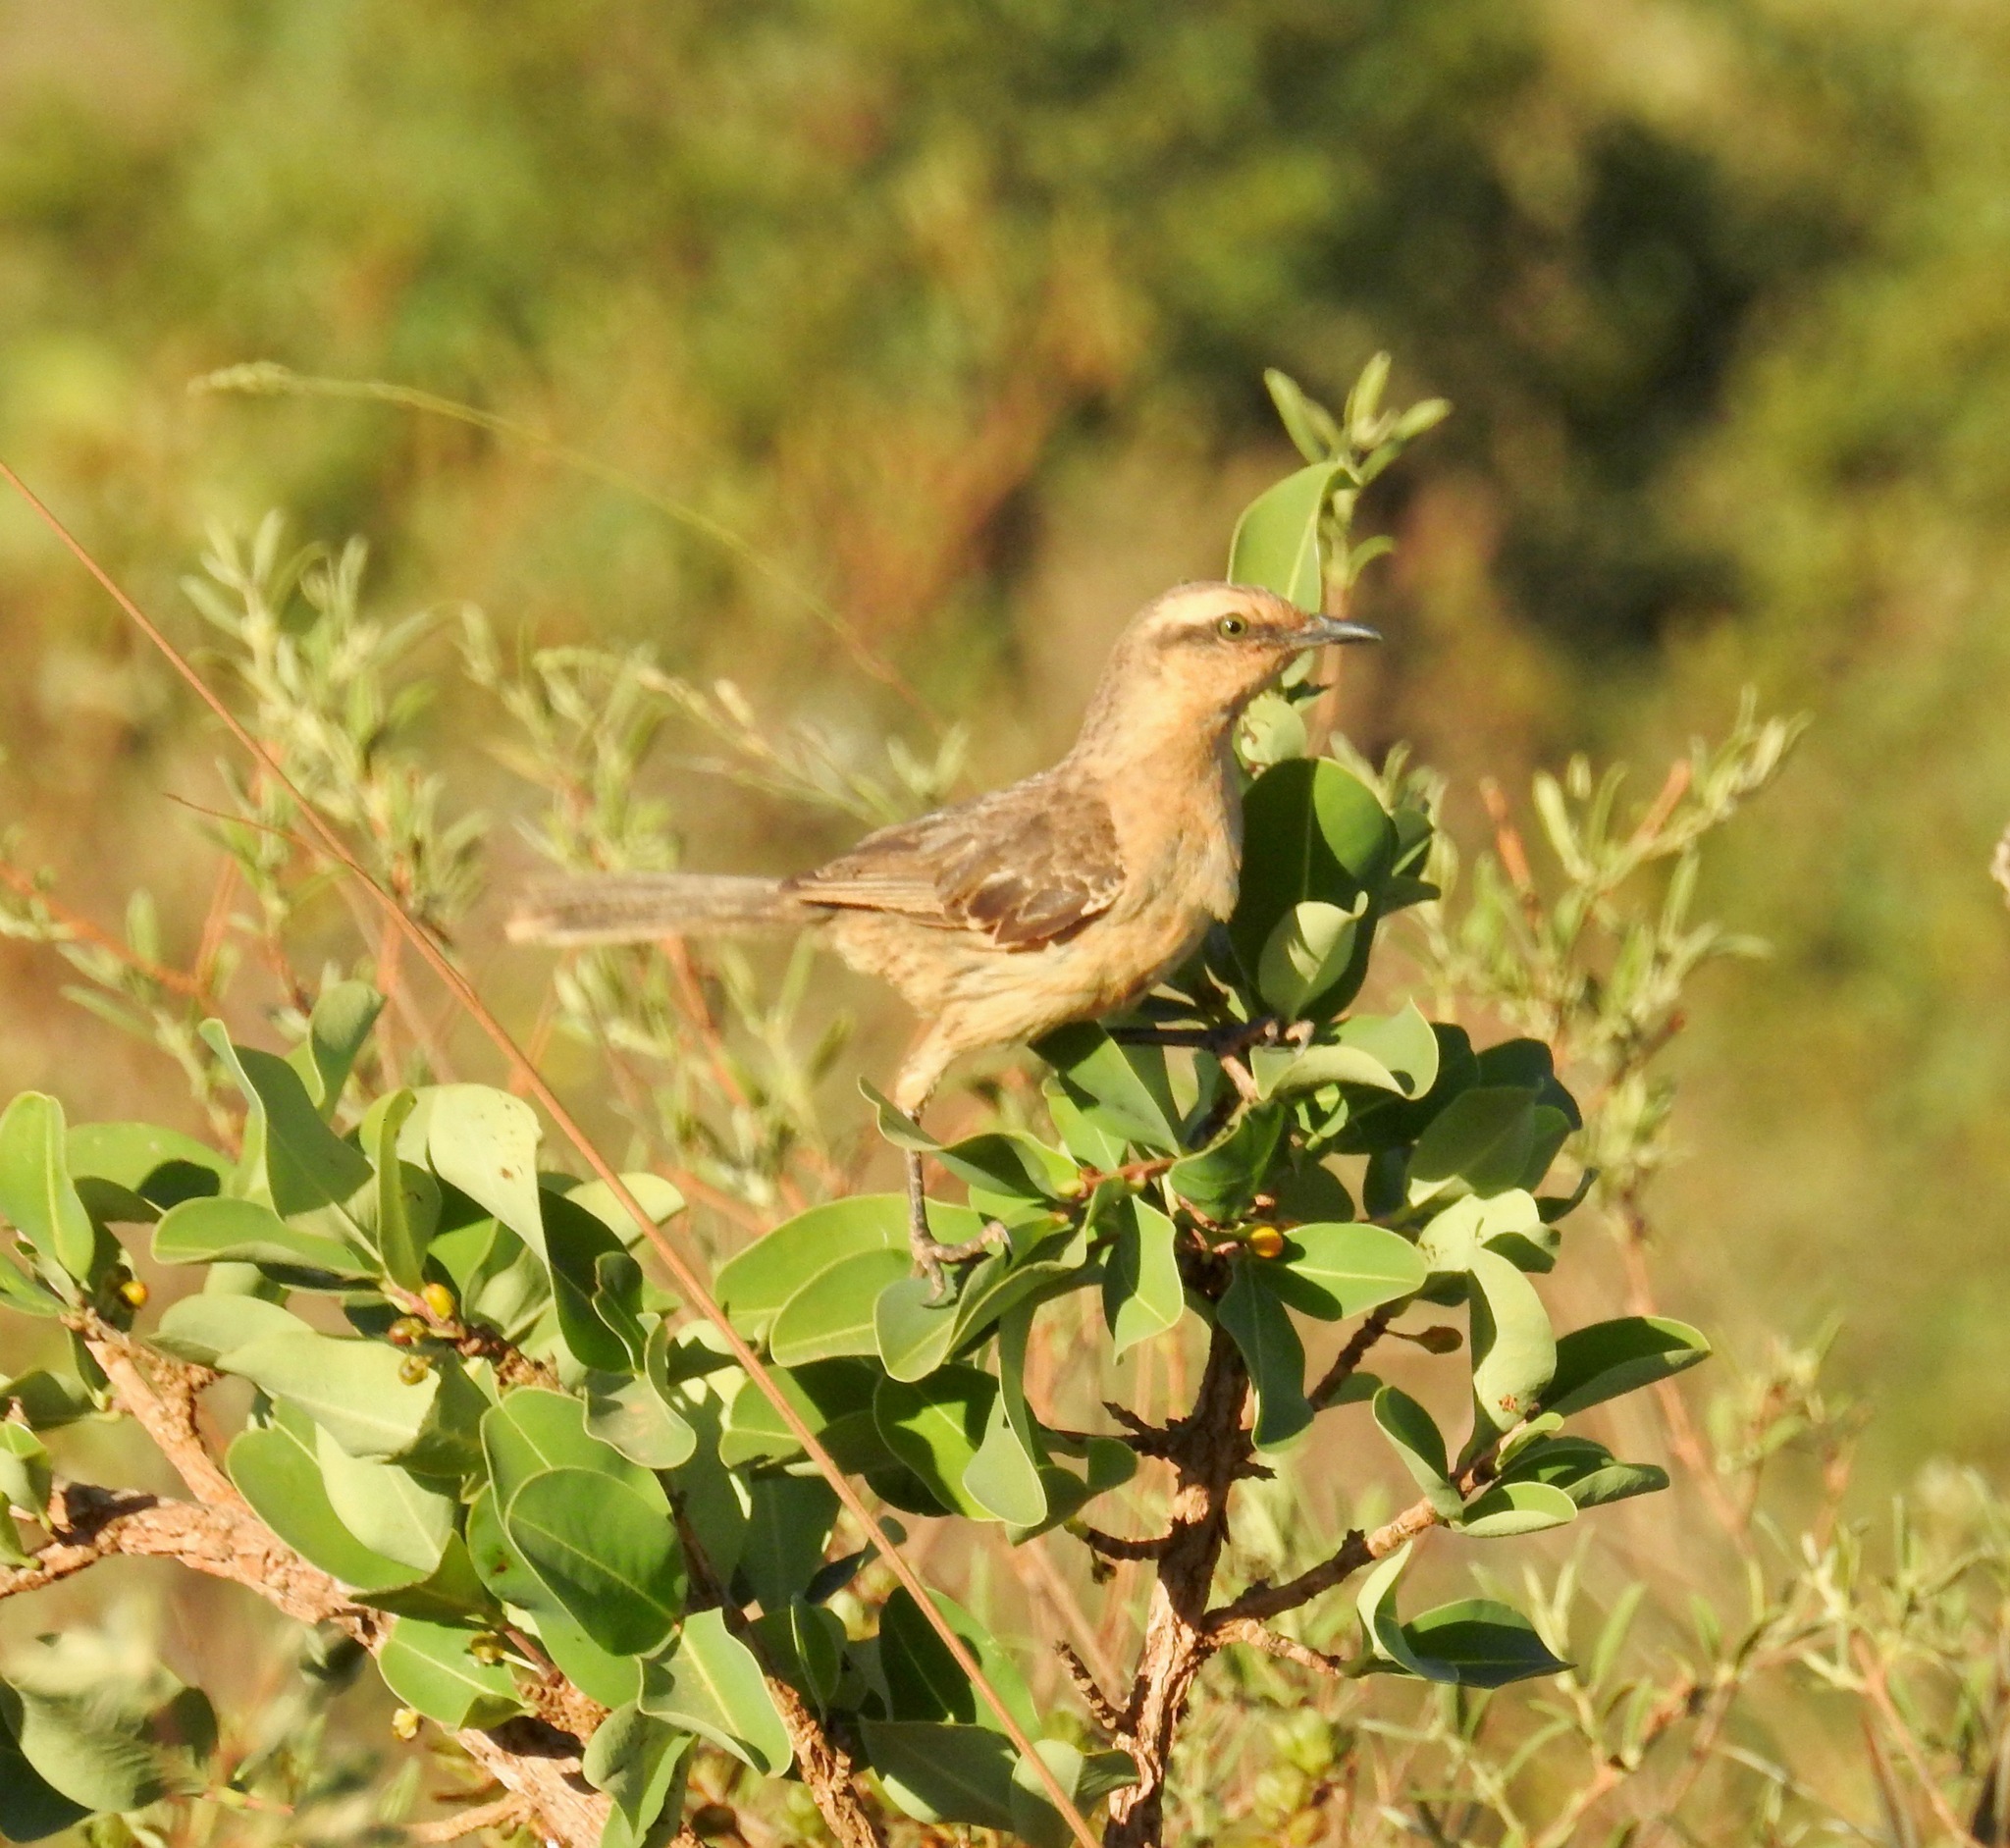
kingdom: Animalia
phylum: Chordata
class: Aves
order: Passeriformes
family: Mimidae
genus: Mimus
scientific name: Mimus saturninus
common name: Chalk-browed mockingbird
